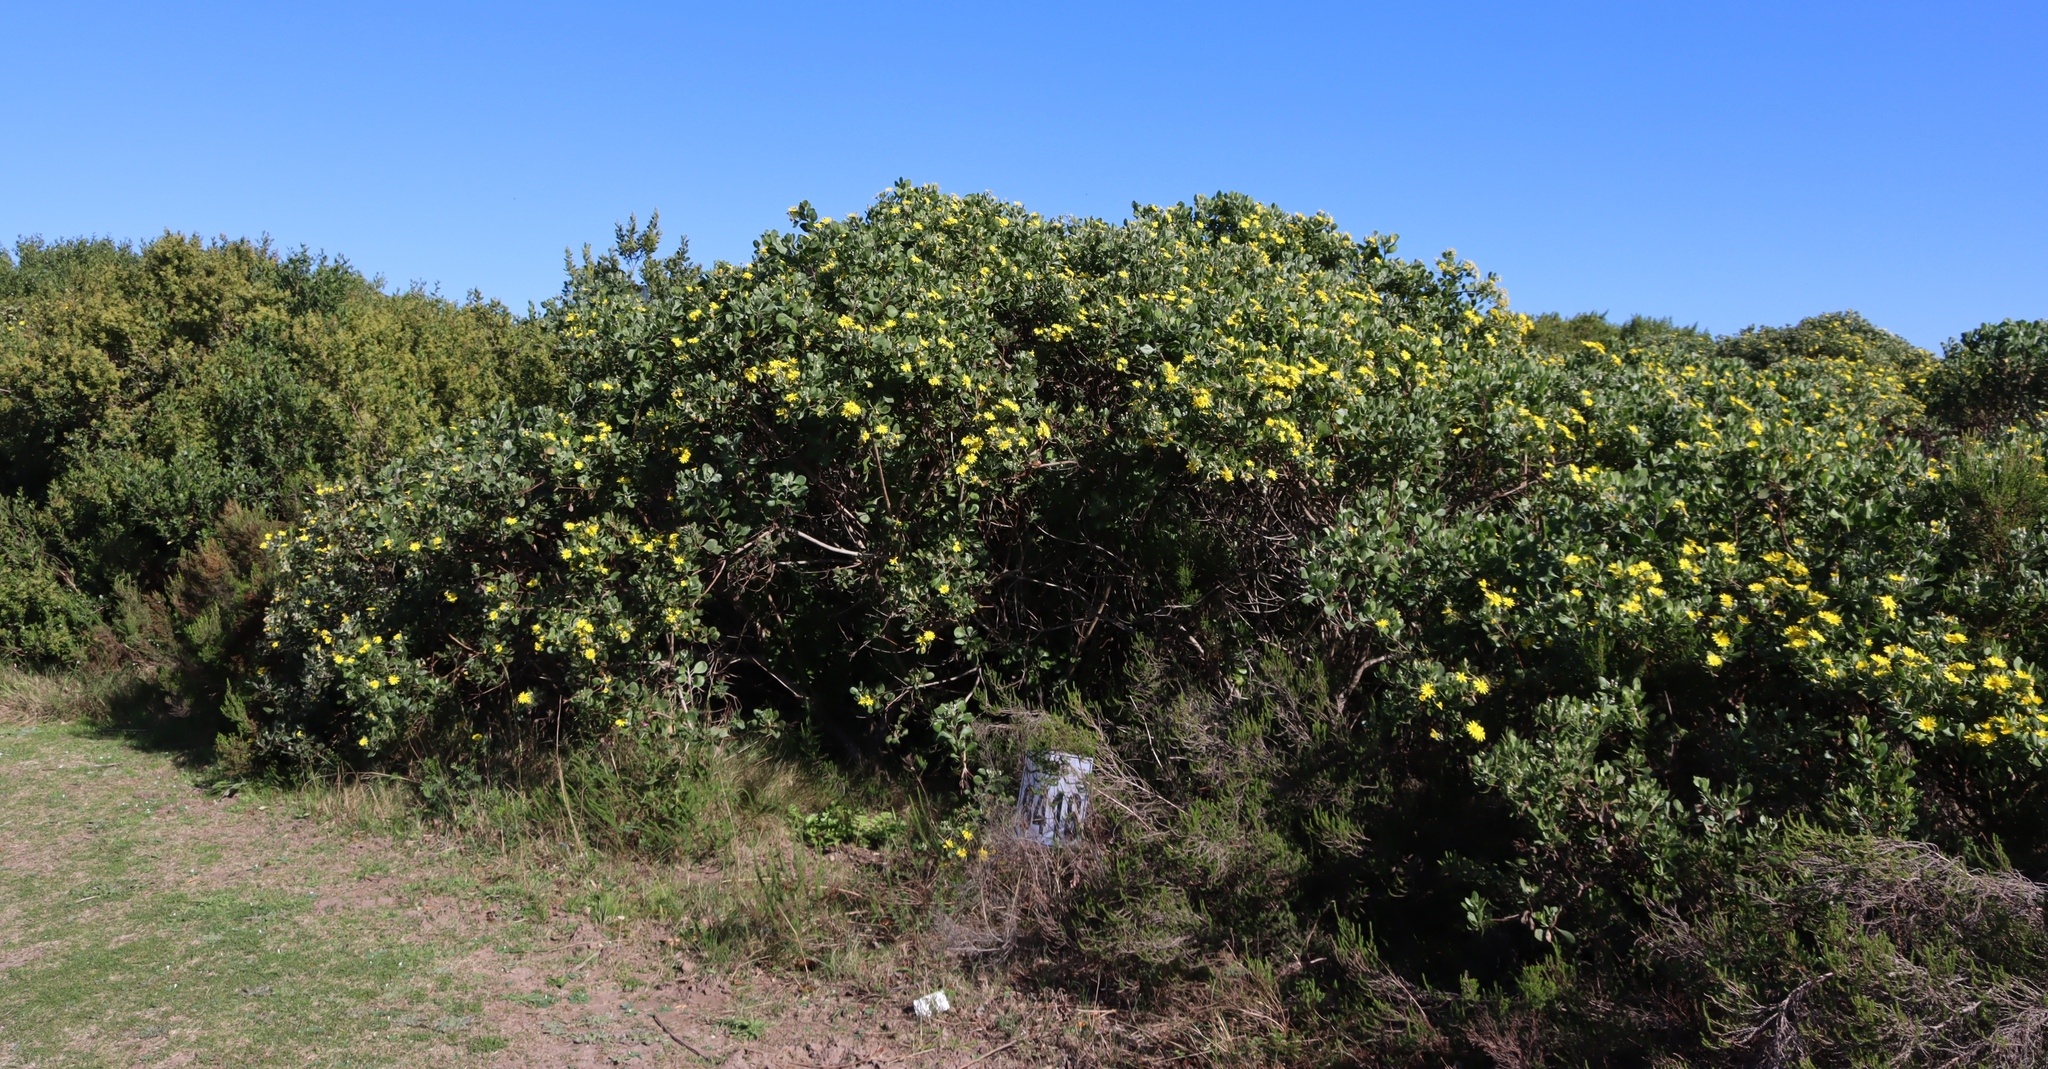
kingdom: Plantae
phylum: Tracheophyta
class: Magnoliopsida
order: Asterales
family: Asteraceae
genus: Osteospermum
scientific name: Osteospermum moniliferum
